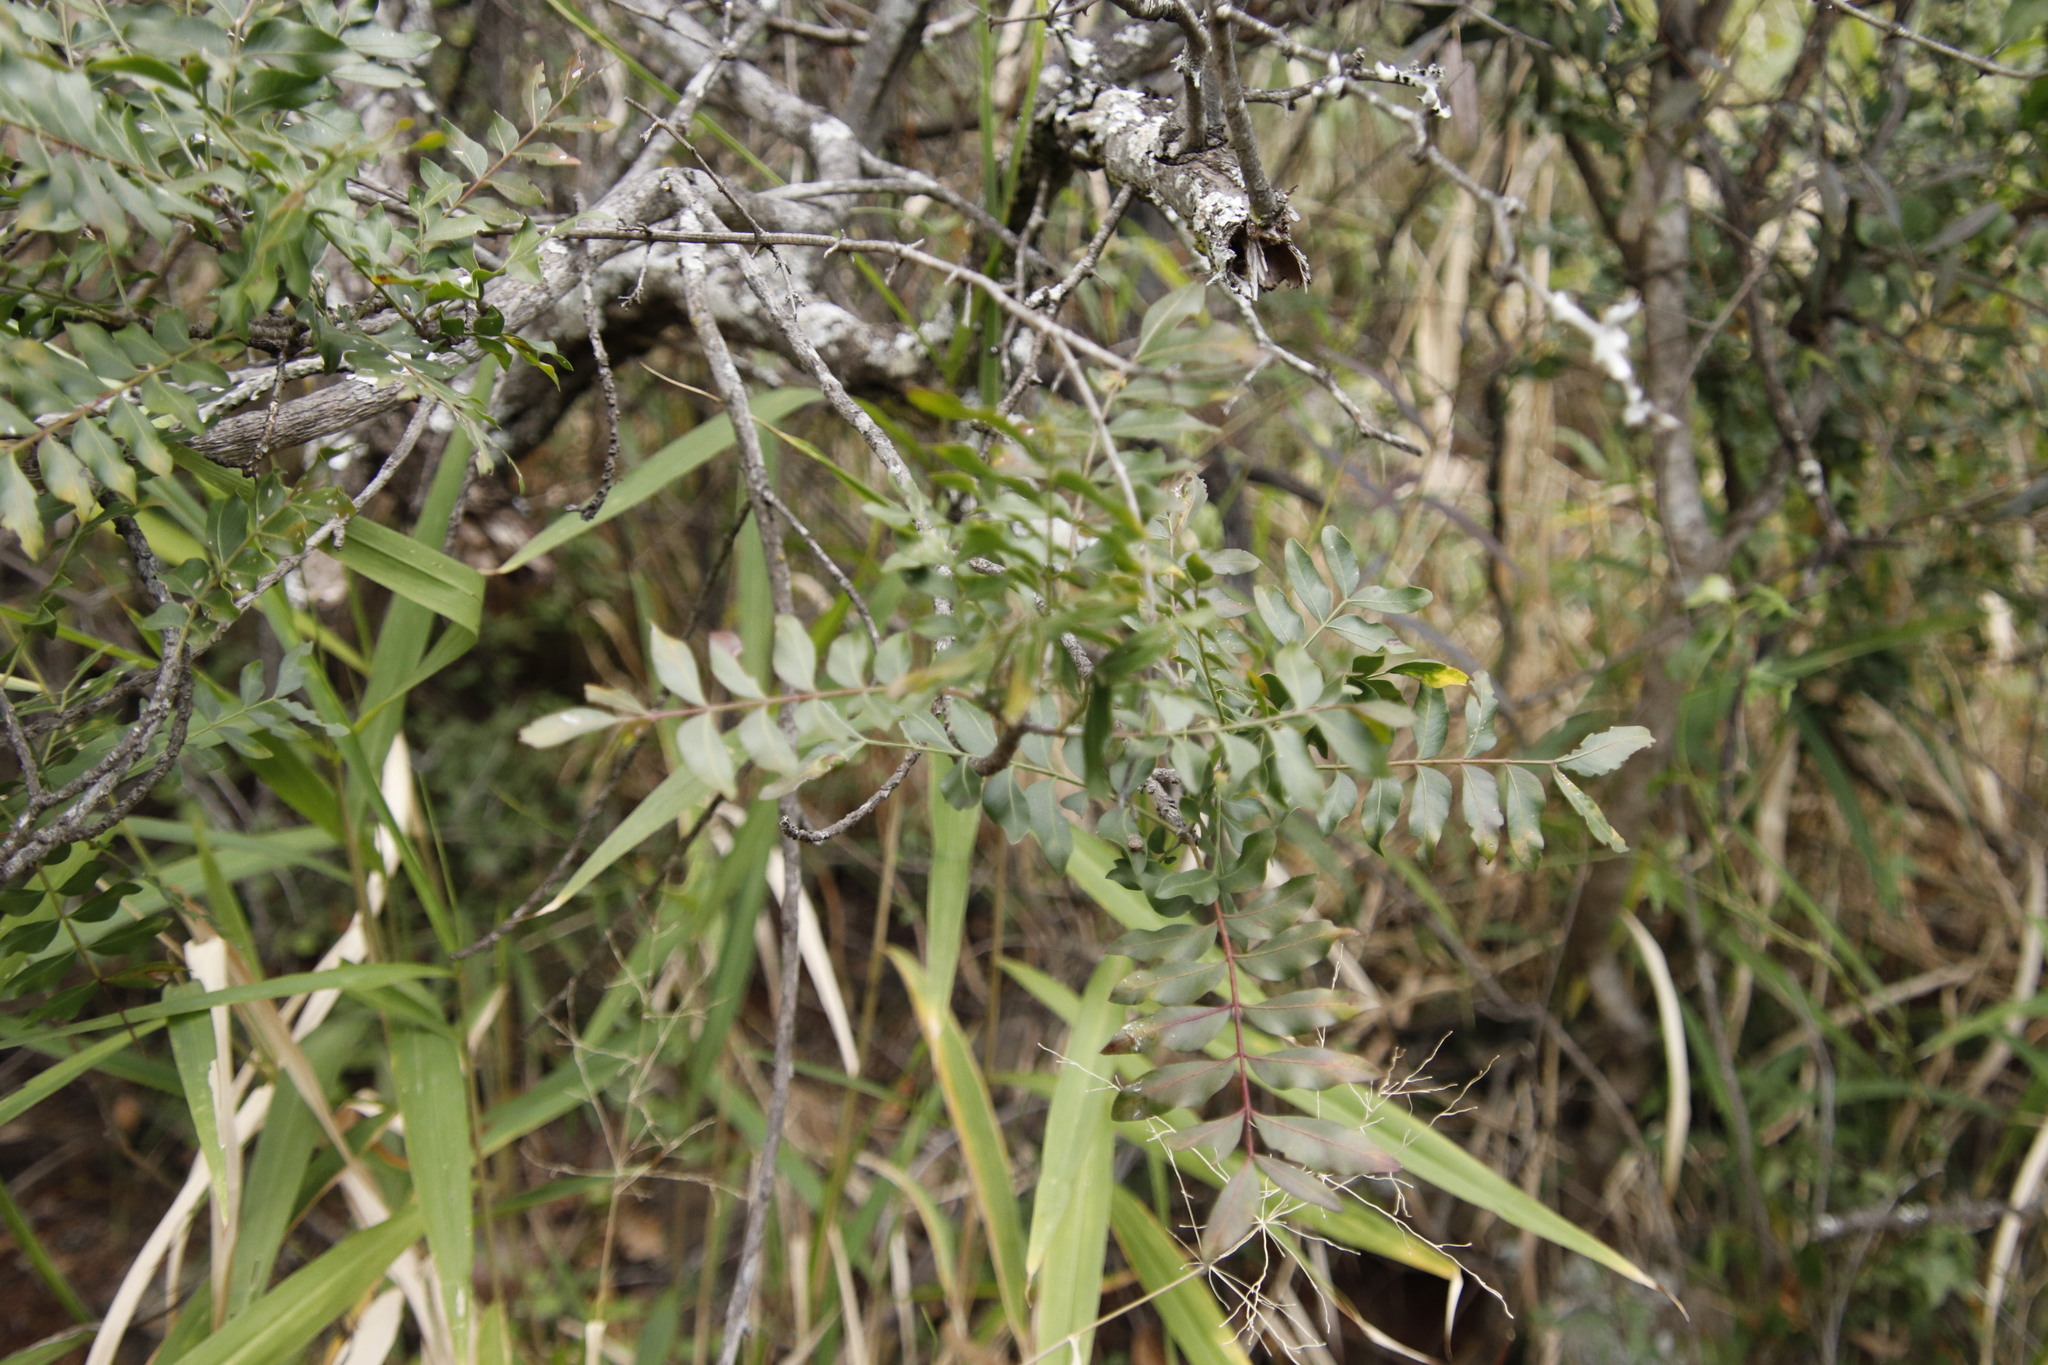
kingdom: Plantae
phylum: Tracheophyta
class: Magnoliopsida
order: Sapindales
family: Rutaceae
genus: Ptaeroxylon
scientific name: Ptaeroxylon obliquum
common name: Sneezewood
